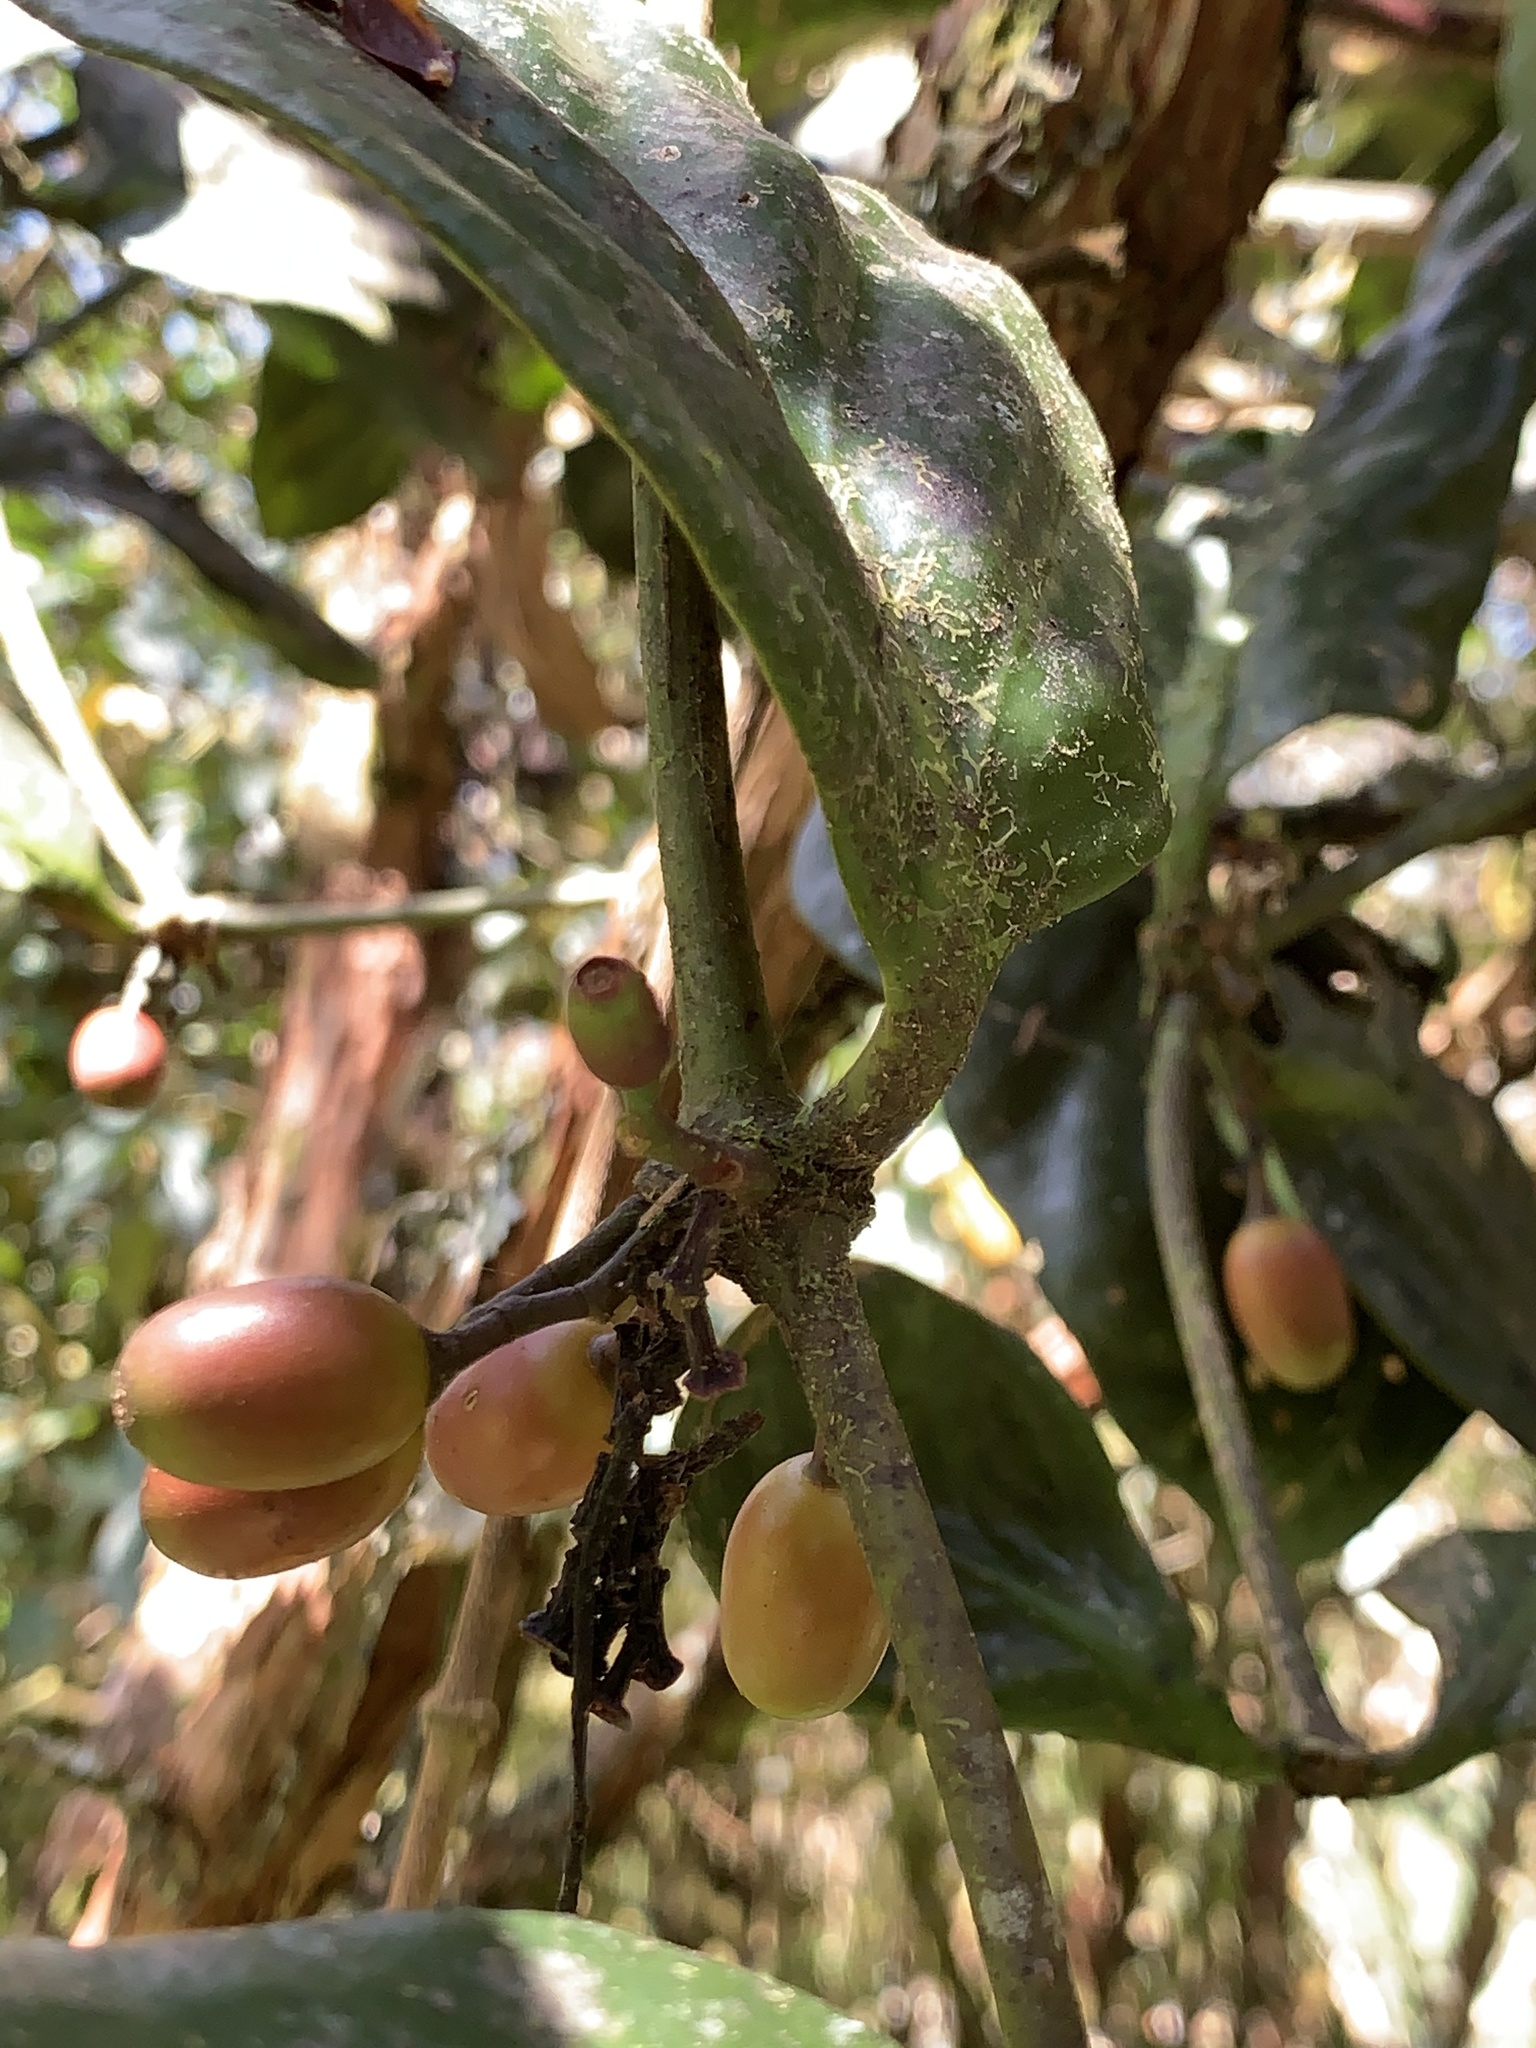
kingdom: Plantae
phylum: Tracheophyta
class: Magnoliopsida
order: Santalales
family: Loranthaceae
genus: Aetanthus
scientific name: Aetanthus nodosus
